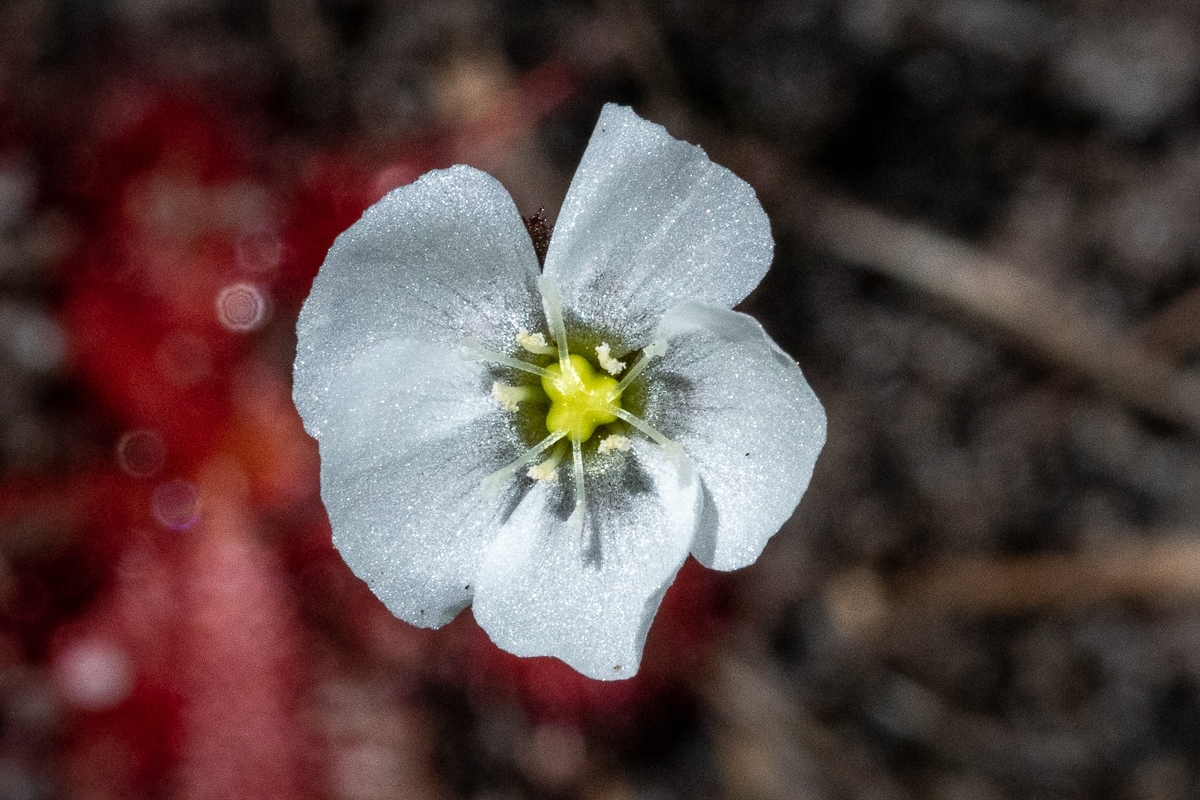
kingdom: Plantae
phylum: Tracheophyta
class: Magnoliopsida
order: Caryophyllales
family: Droseraceae
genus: Drosera
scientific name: Drosera trinervia
